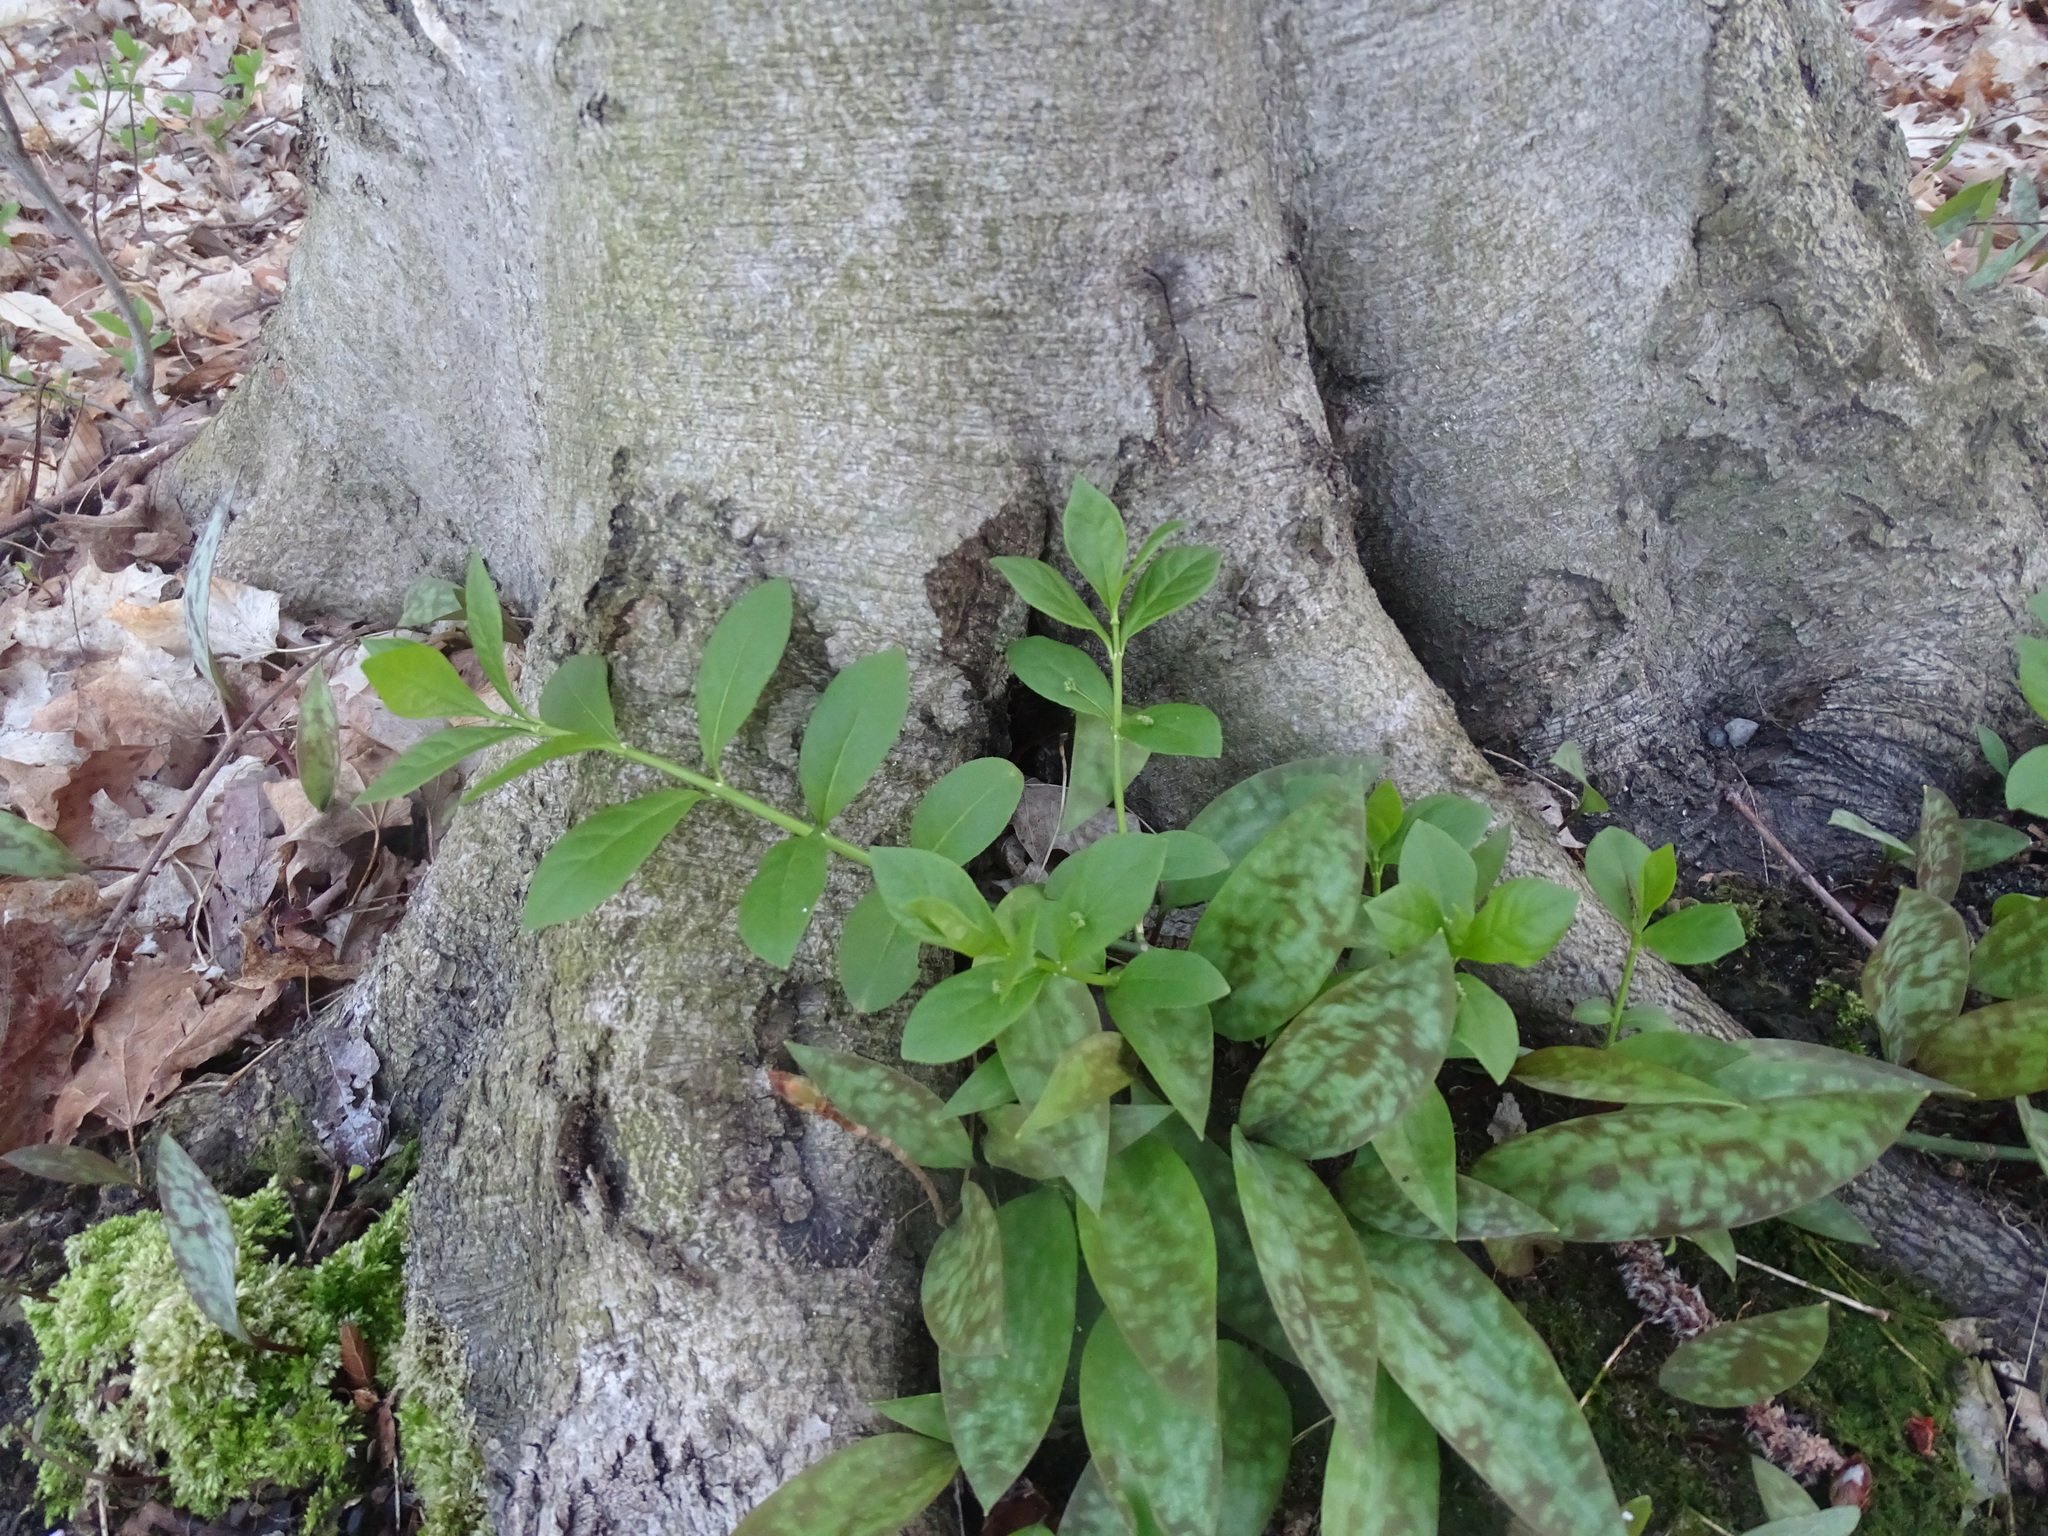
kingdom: Plantae
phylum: Tracheophyta
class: Magnoliopsida
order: Celastrales
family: Celastraceae
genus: Euonymus
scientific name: Euonymus obovatus
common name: Running strawberry-bush
